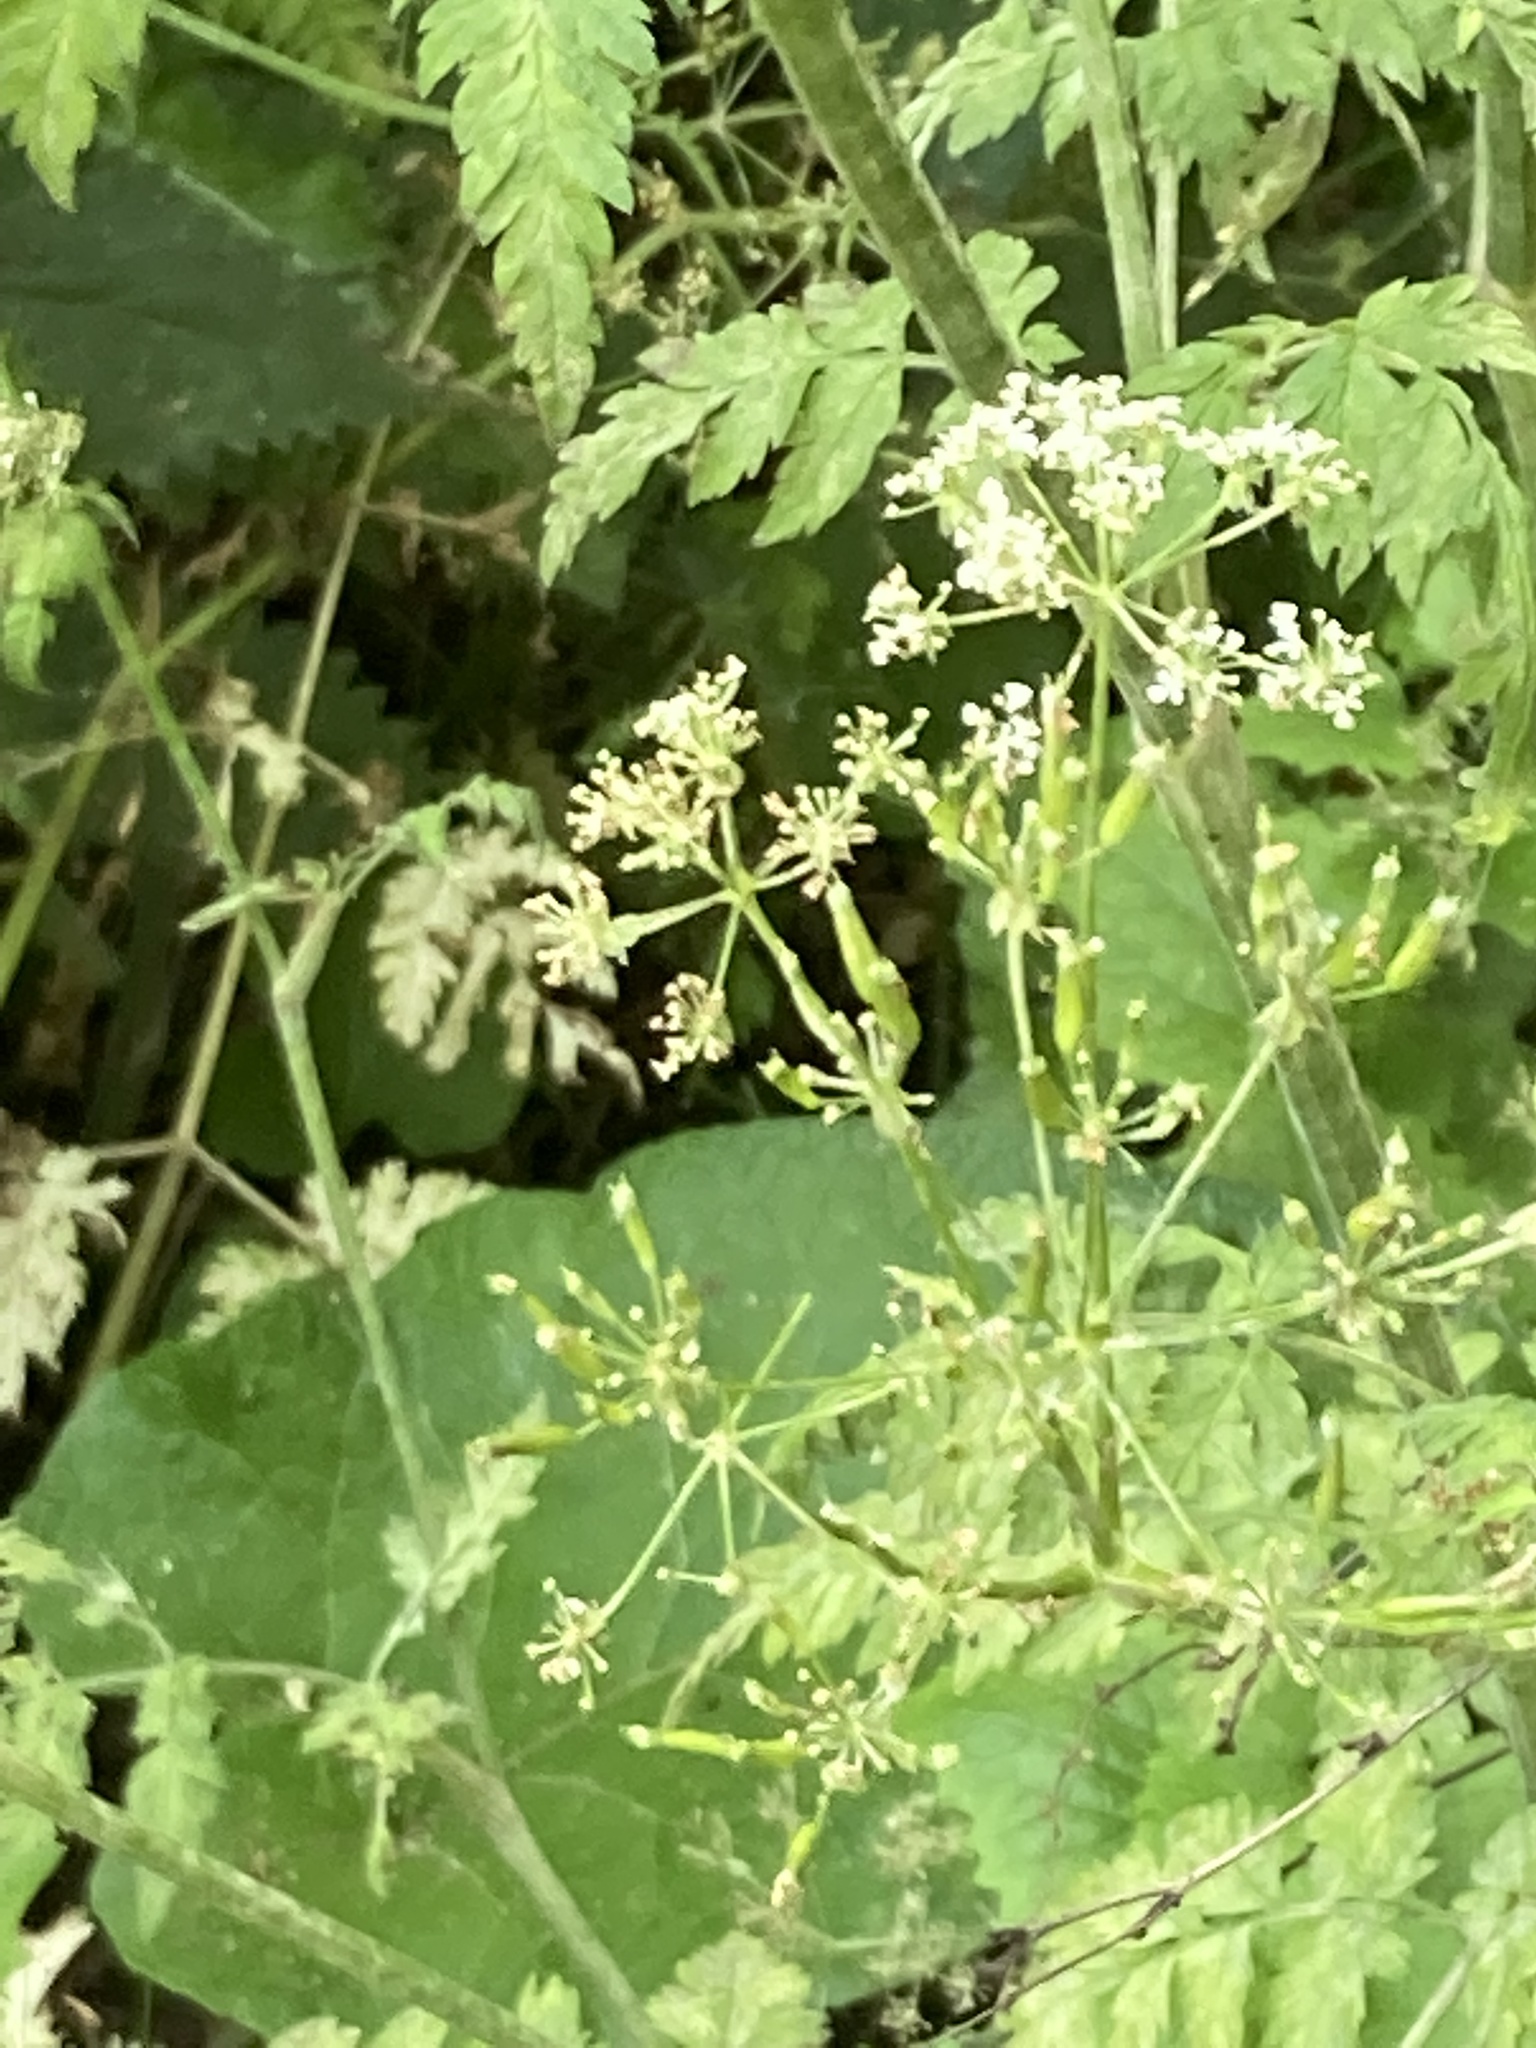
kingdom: Plantae
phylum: Tracheophyta
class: Magnoliopsida
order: Apiales
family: Apiaceae
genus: Anthriscus
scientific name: Anthriscus sylvestris
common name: Cow parsley
